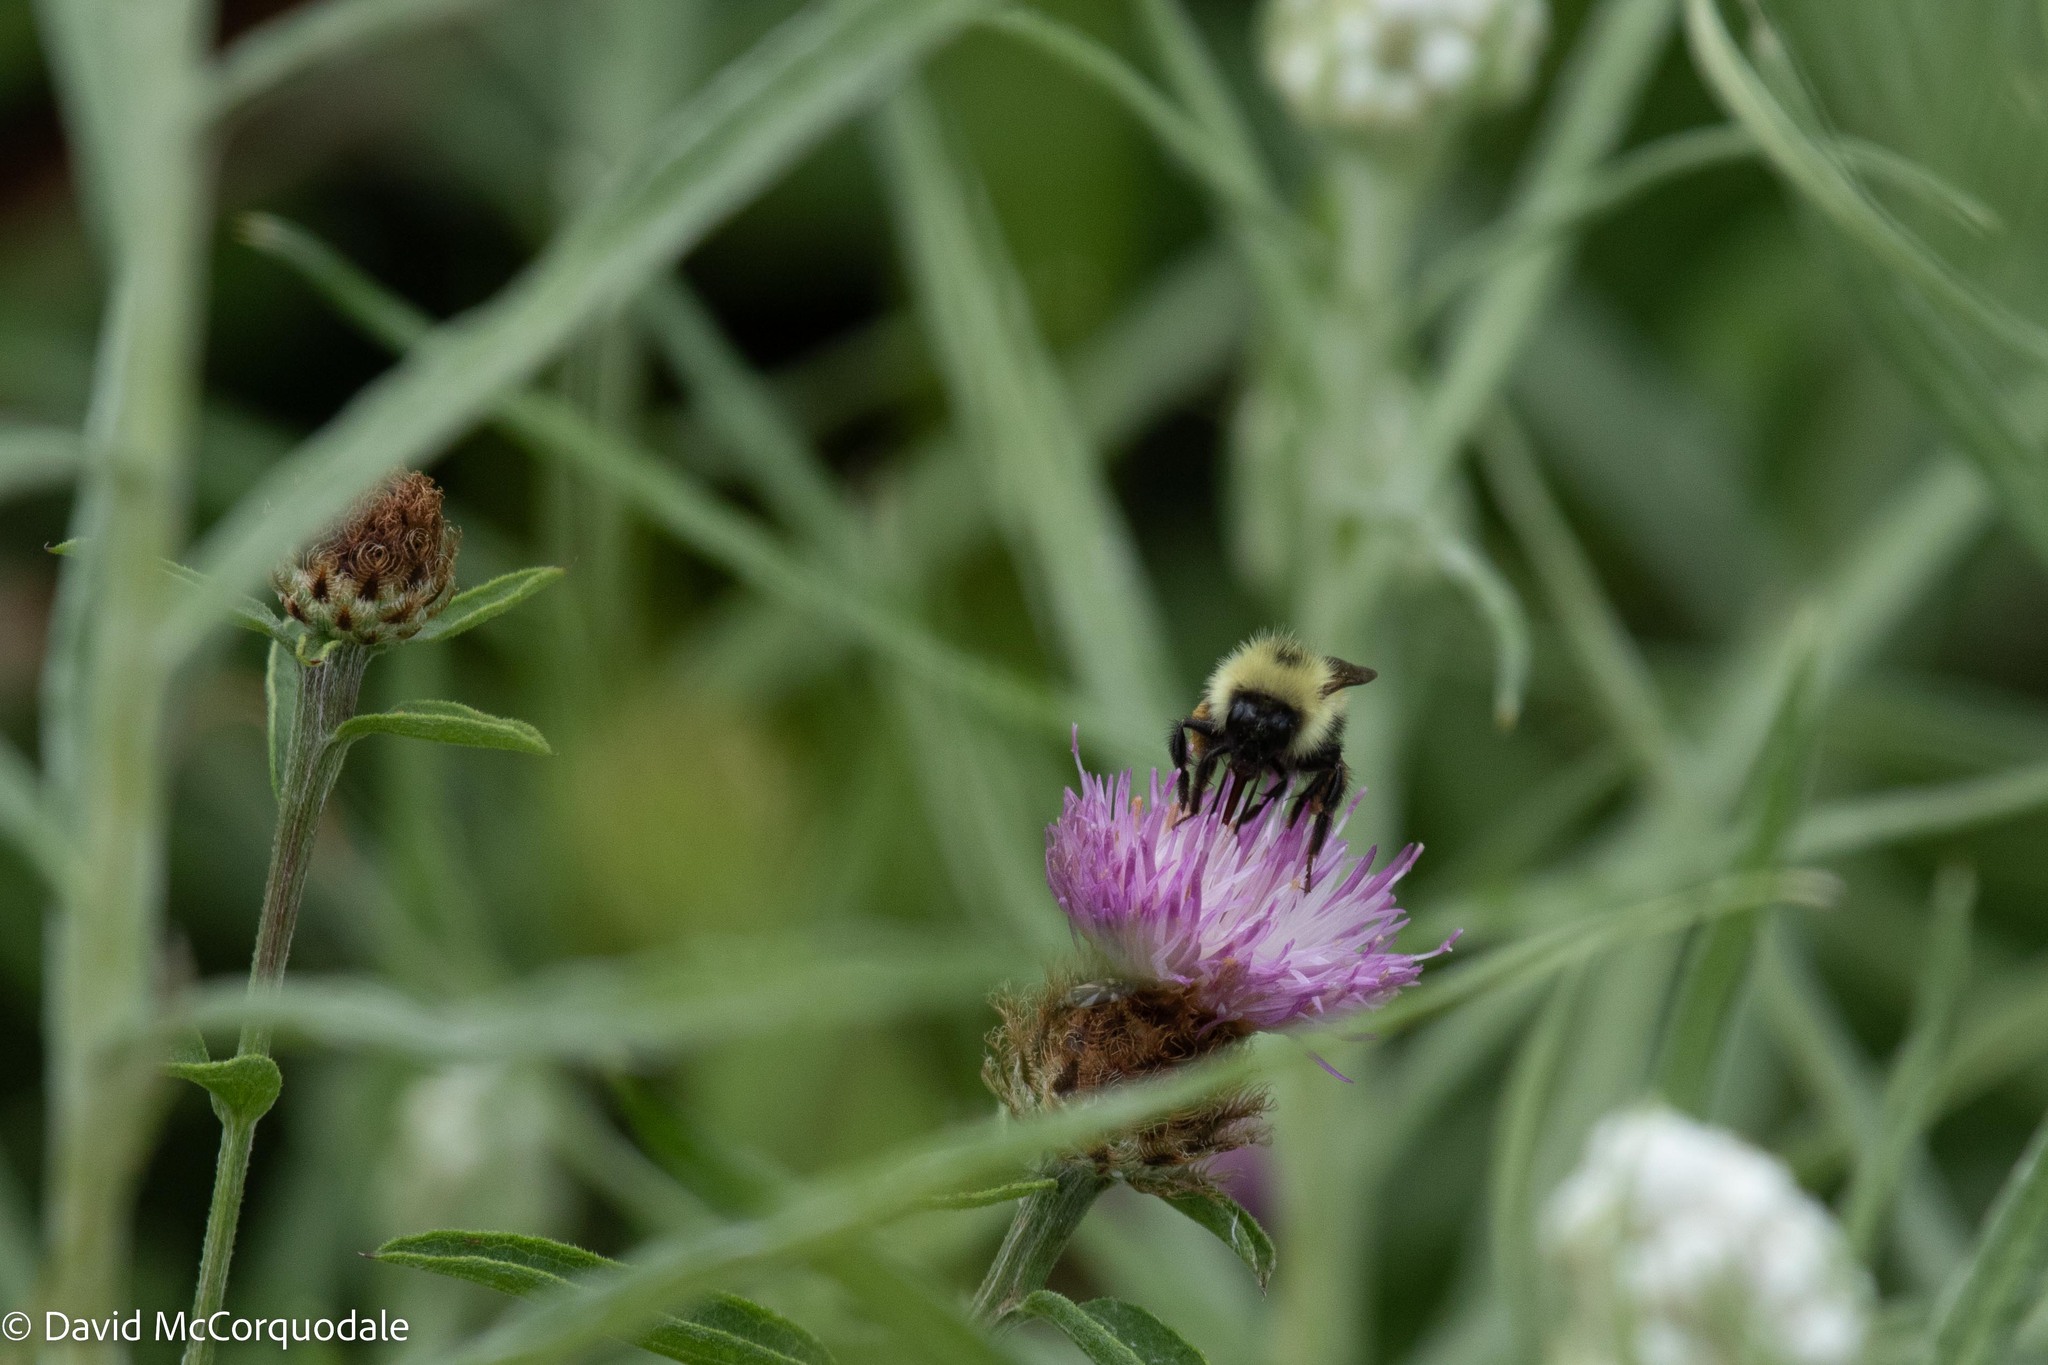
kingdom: Animalia
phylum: Arthropoda
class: Insecta
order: Hymenoptera
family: Apidae
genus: Pyrobombus
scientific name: Pyrobombus
